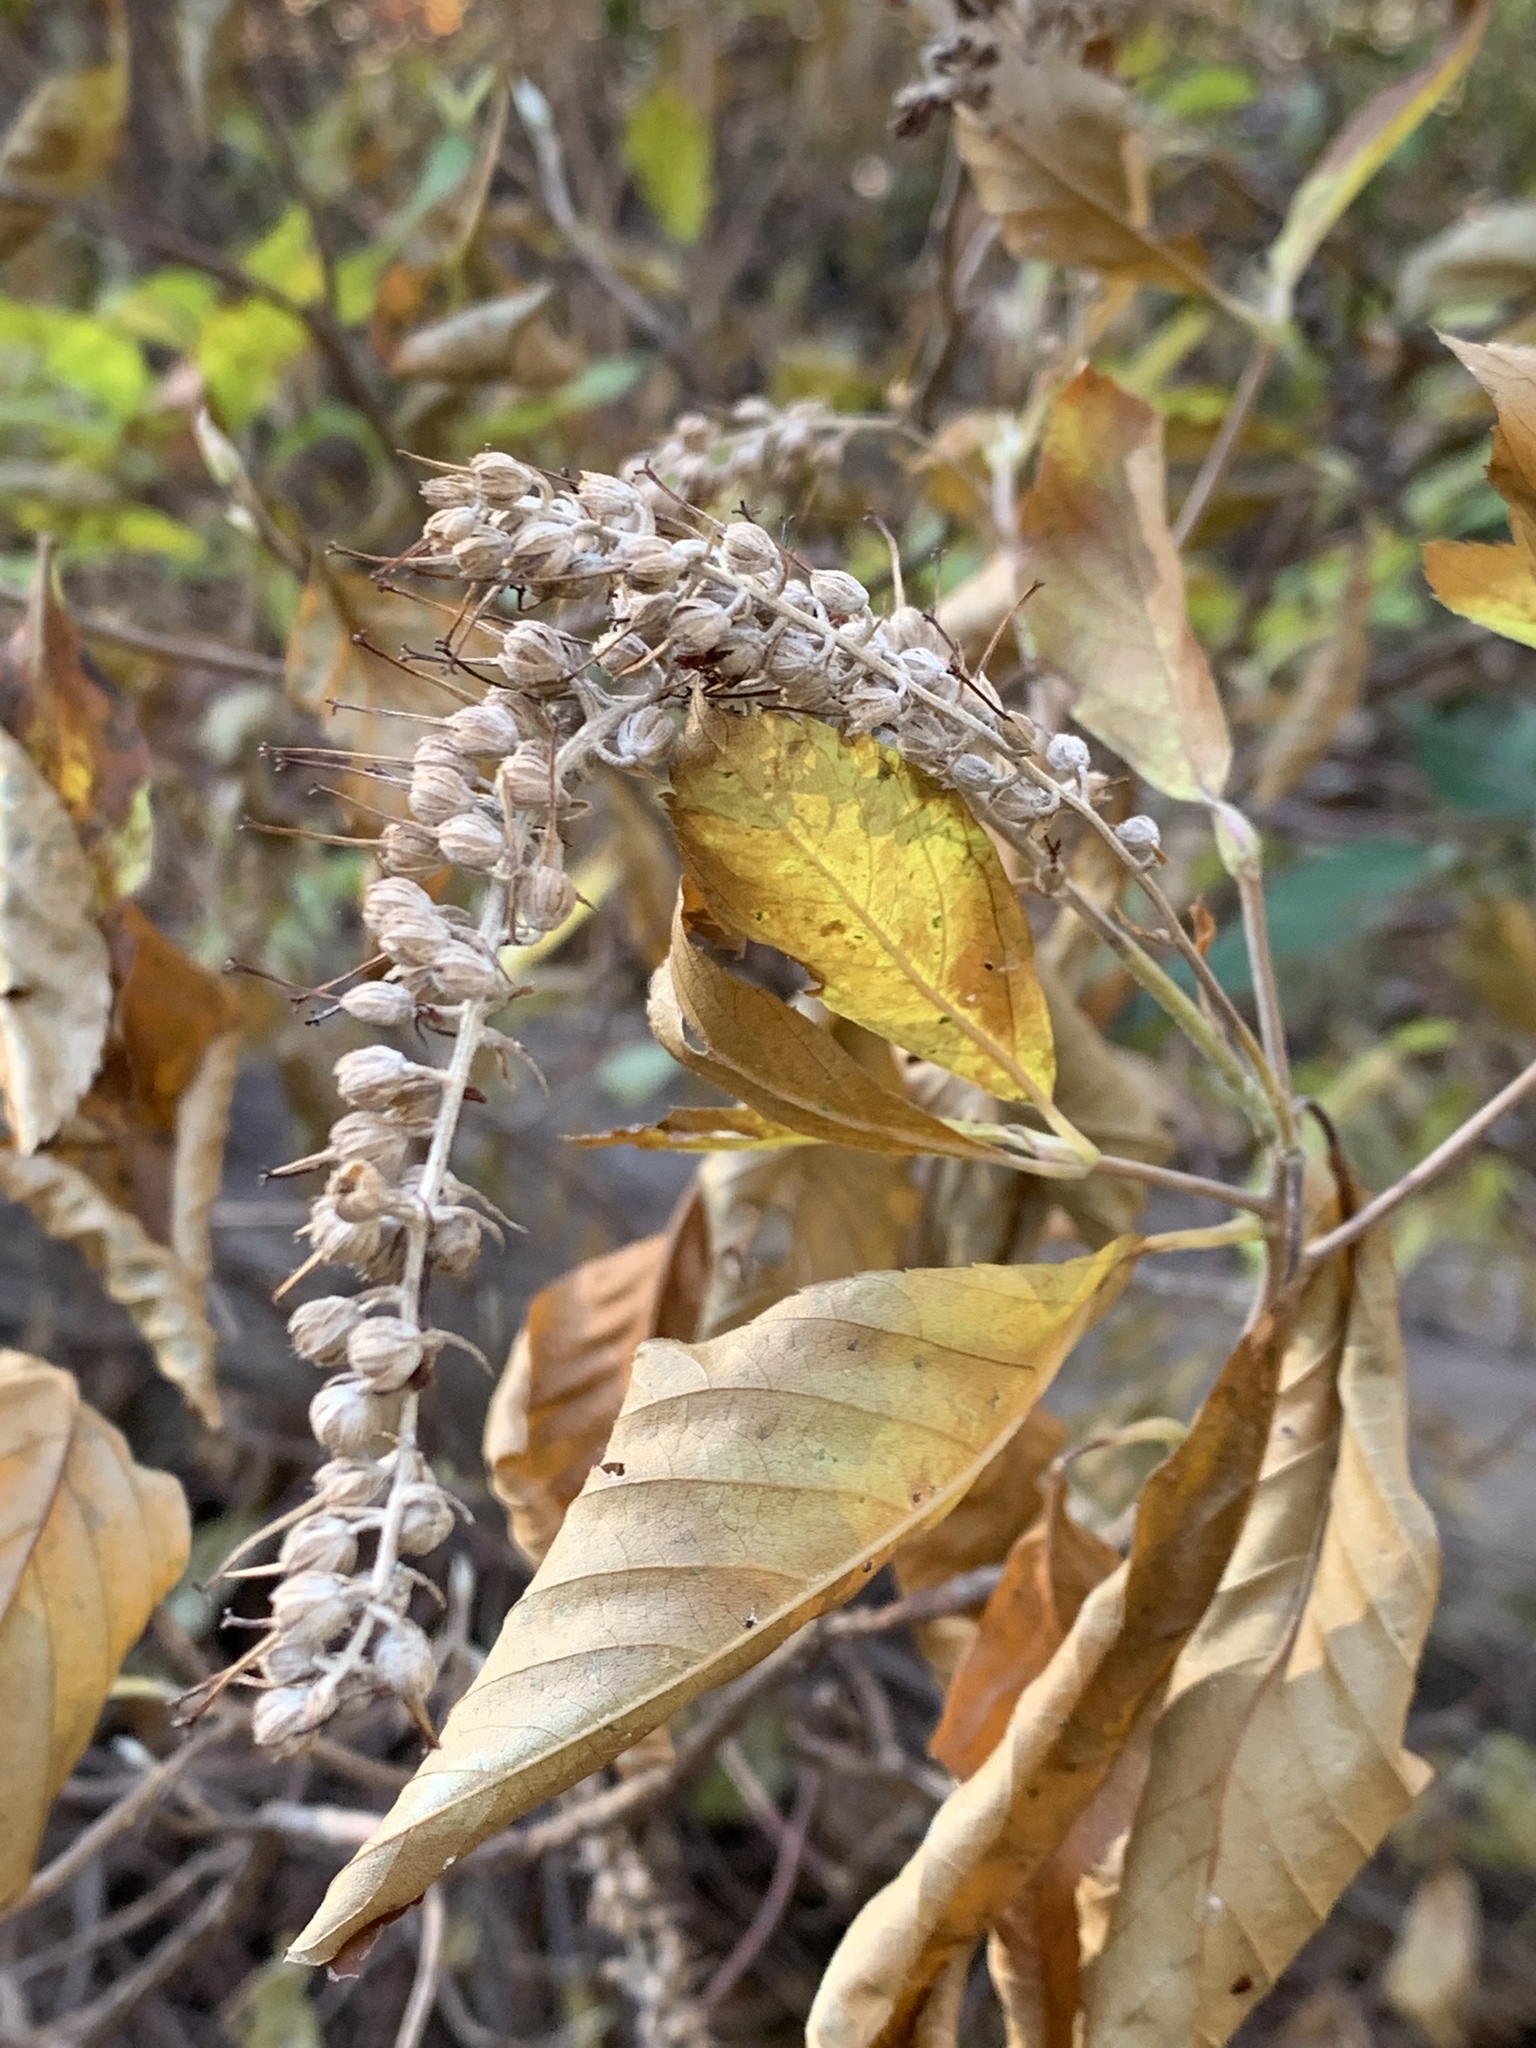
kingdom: Plantae
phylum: Tracheophyta
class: Magnoliopsida
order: Ericales
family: Clethraceae
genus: Clethra
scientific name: Clethra alnifolia
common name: Sweet pepperbush
